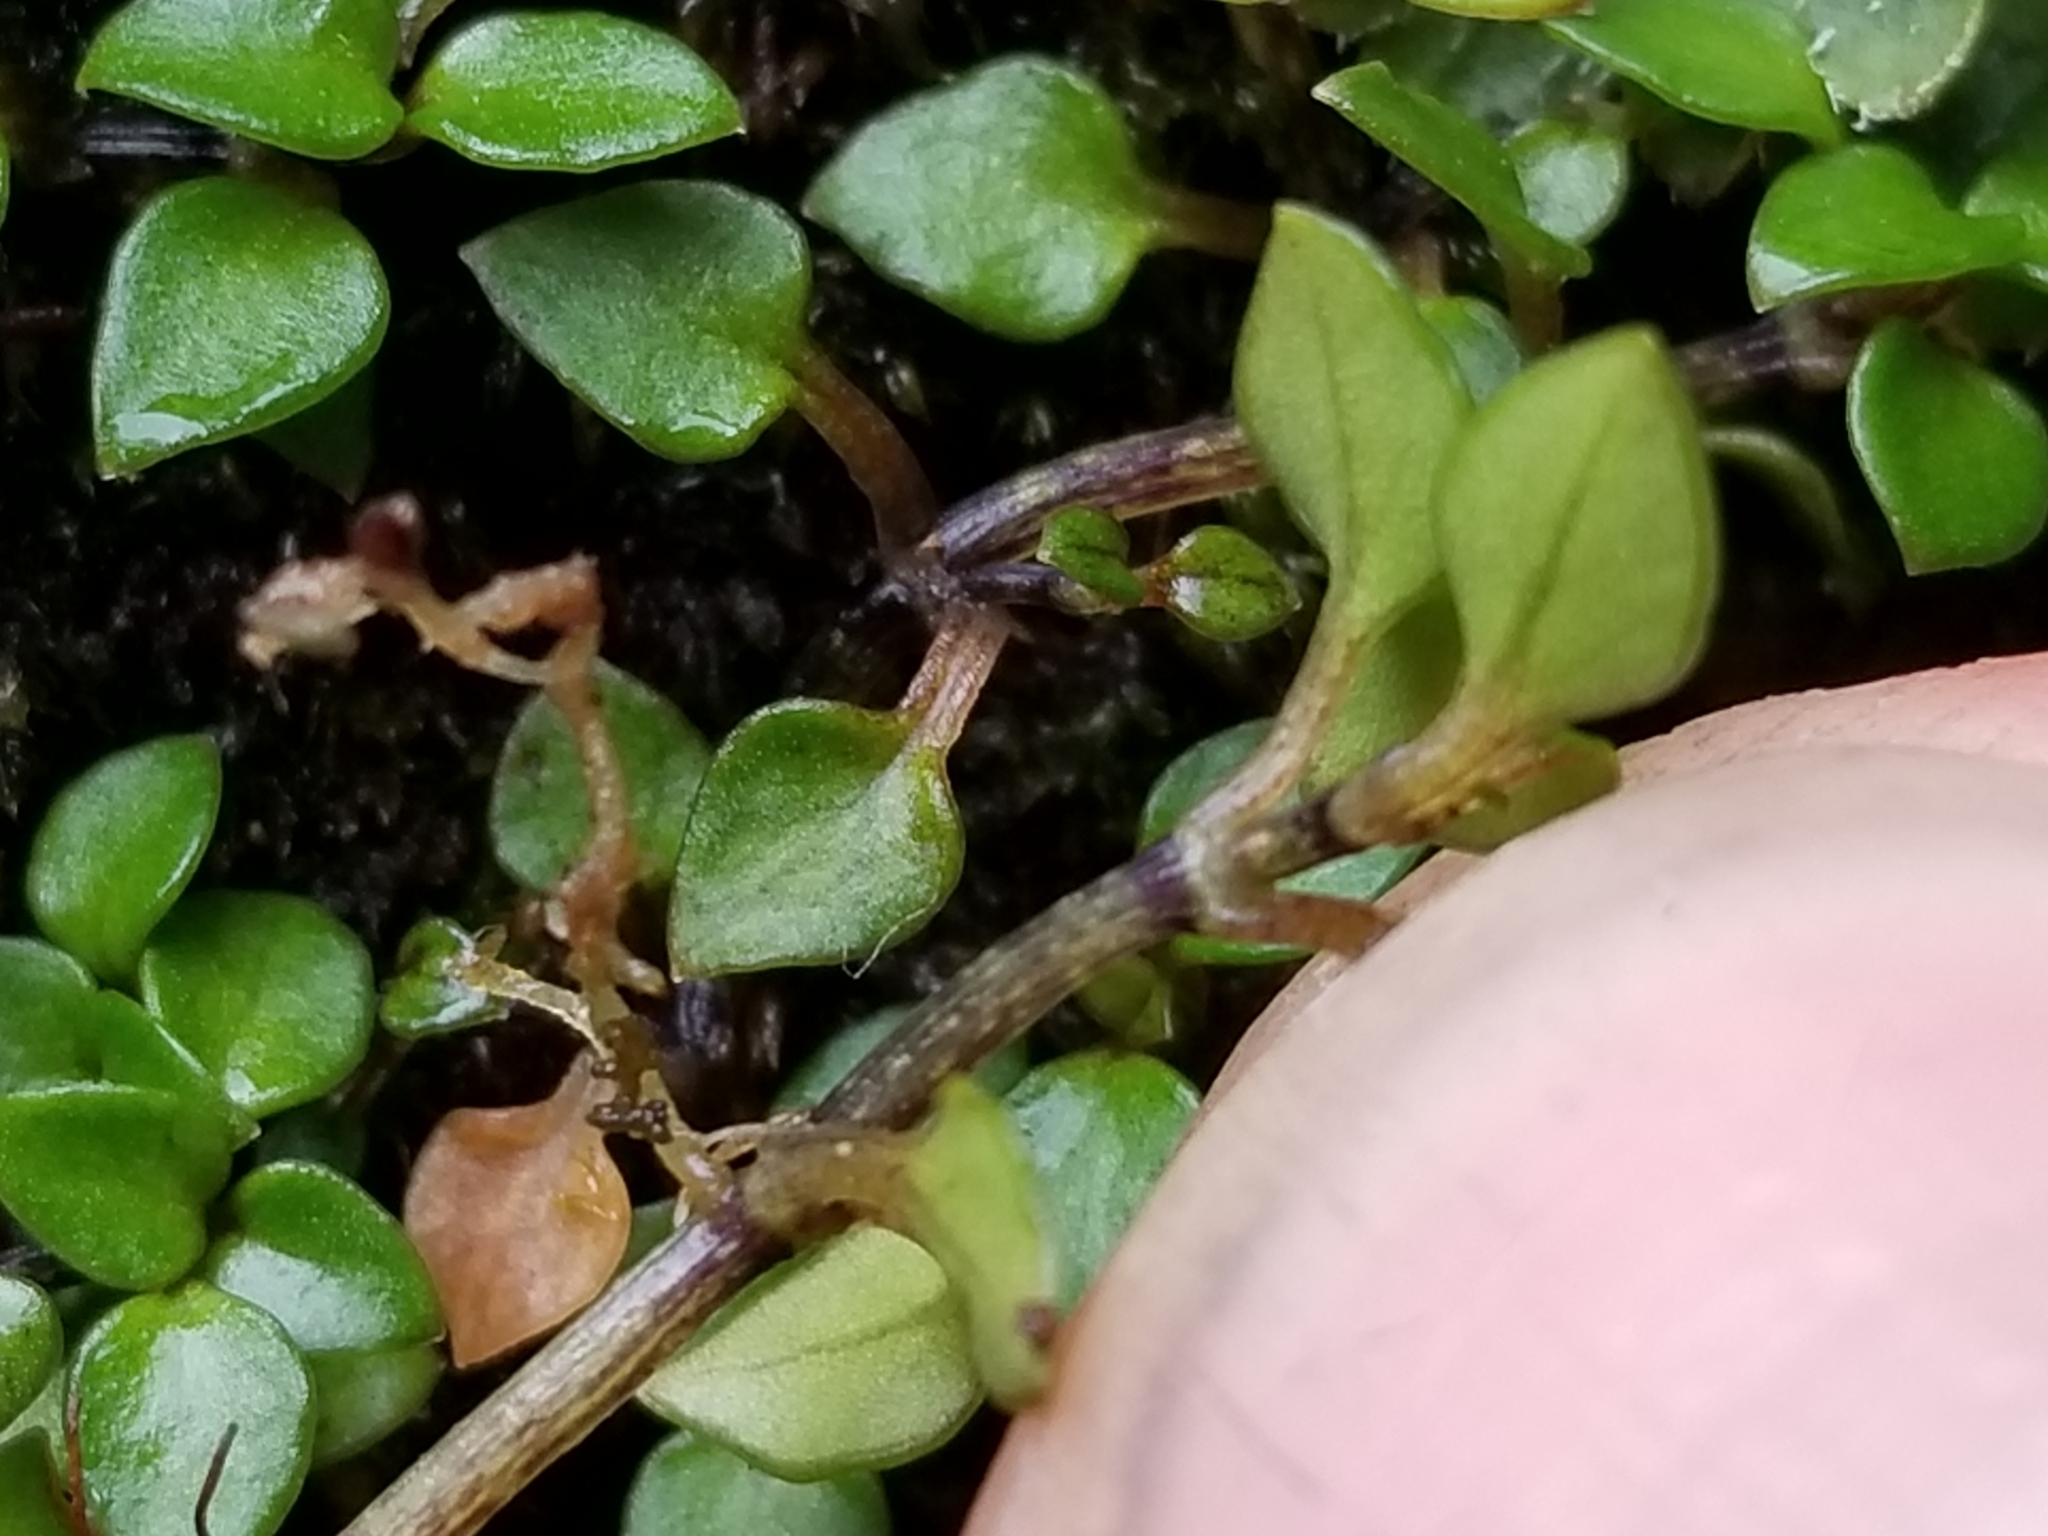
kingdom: Plantae
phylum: Tracheophyta
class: Magnoliopsida
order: Gentianales
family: Rubiaceae
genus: Nertera
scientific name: Nertera granadensis
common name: Beadplant
